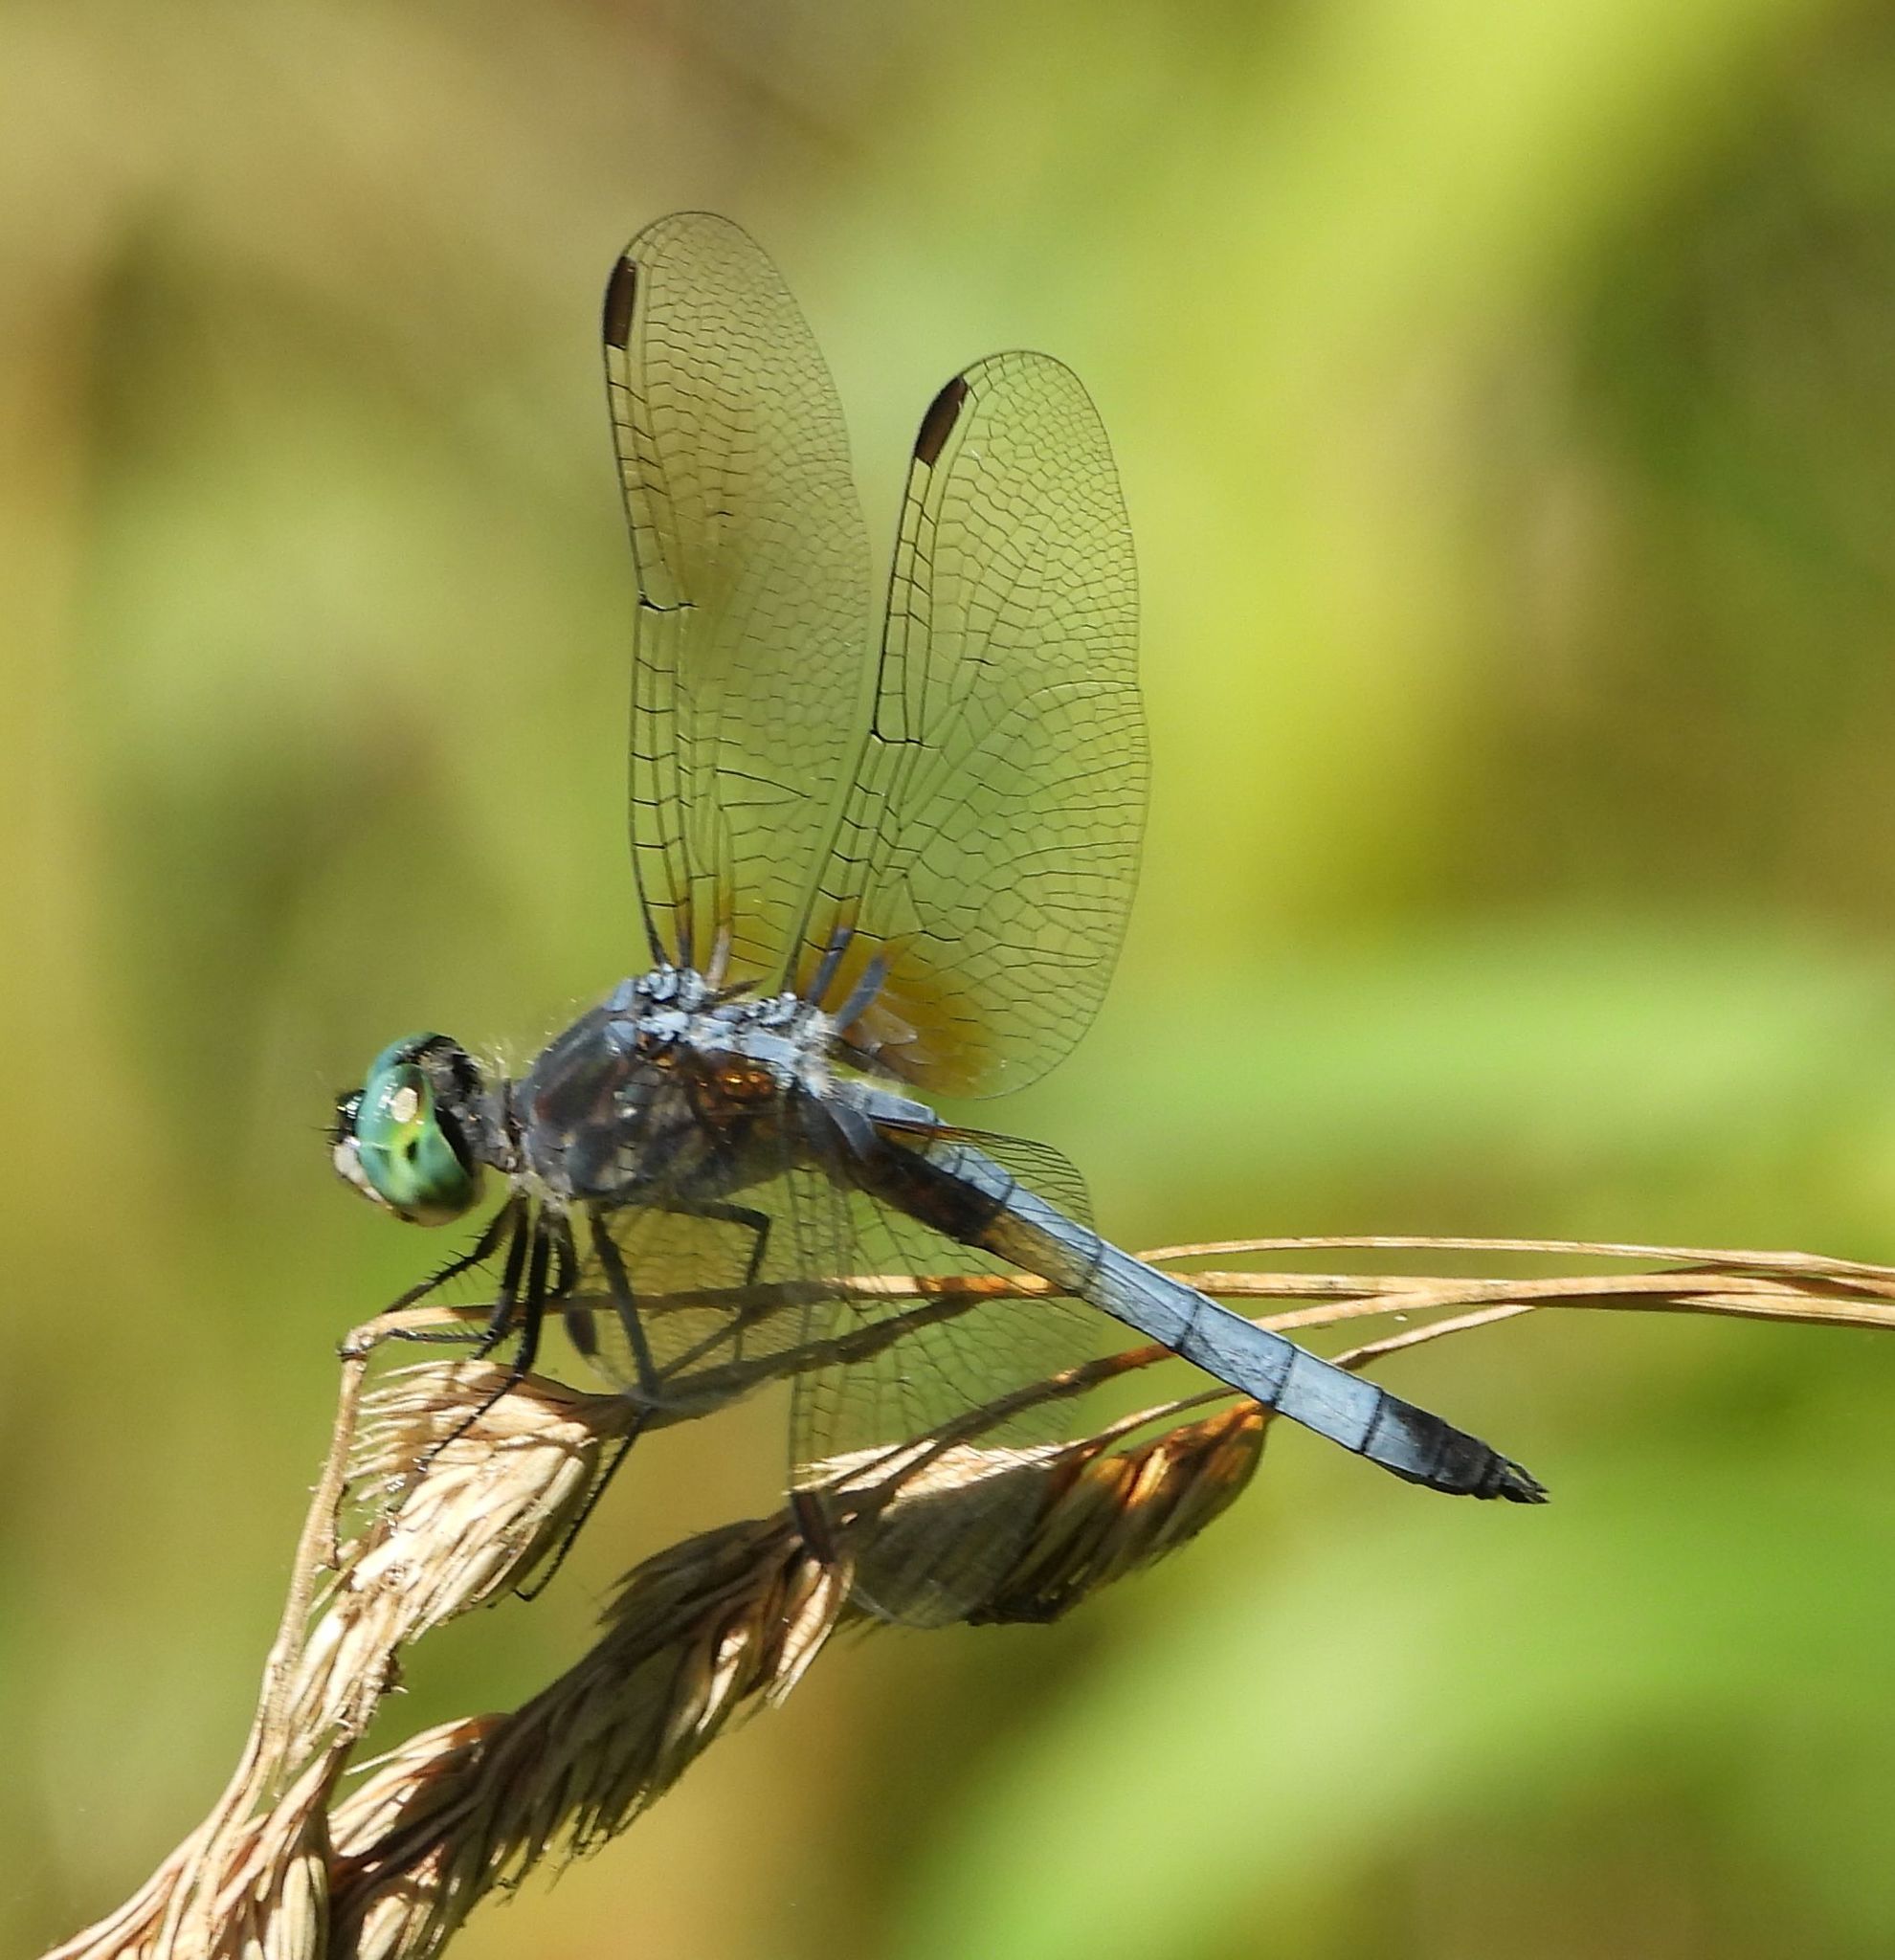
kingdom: Animalia
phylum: Arthropoda
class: Insecta
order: Odonata
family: Libellulidae
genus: Pachydiplax
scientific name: Pachydiplax longipennis
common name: Blue dasher
